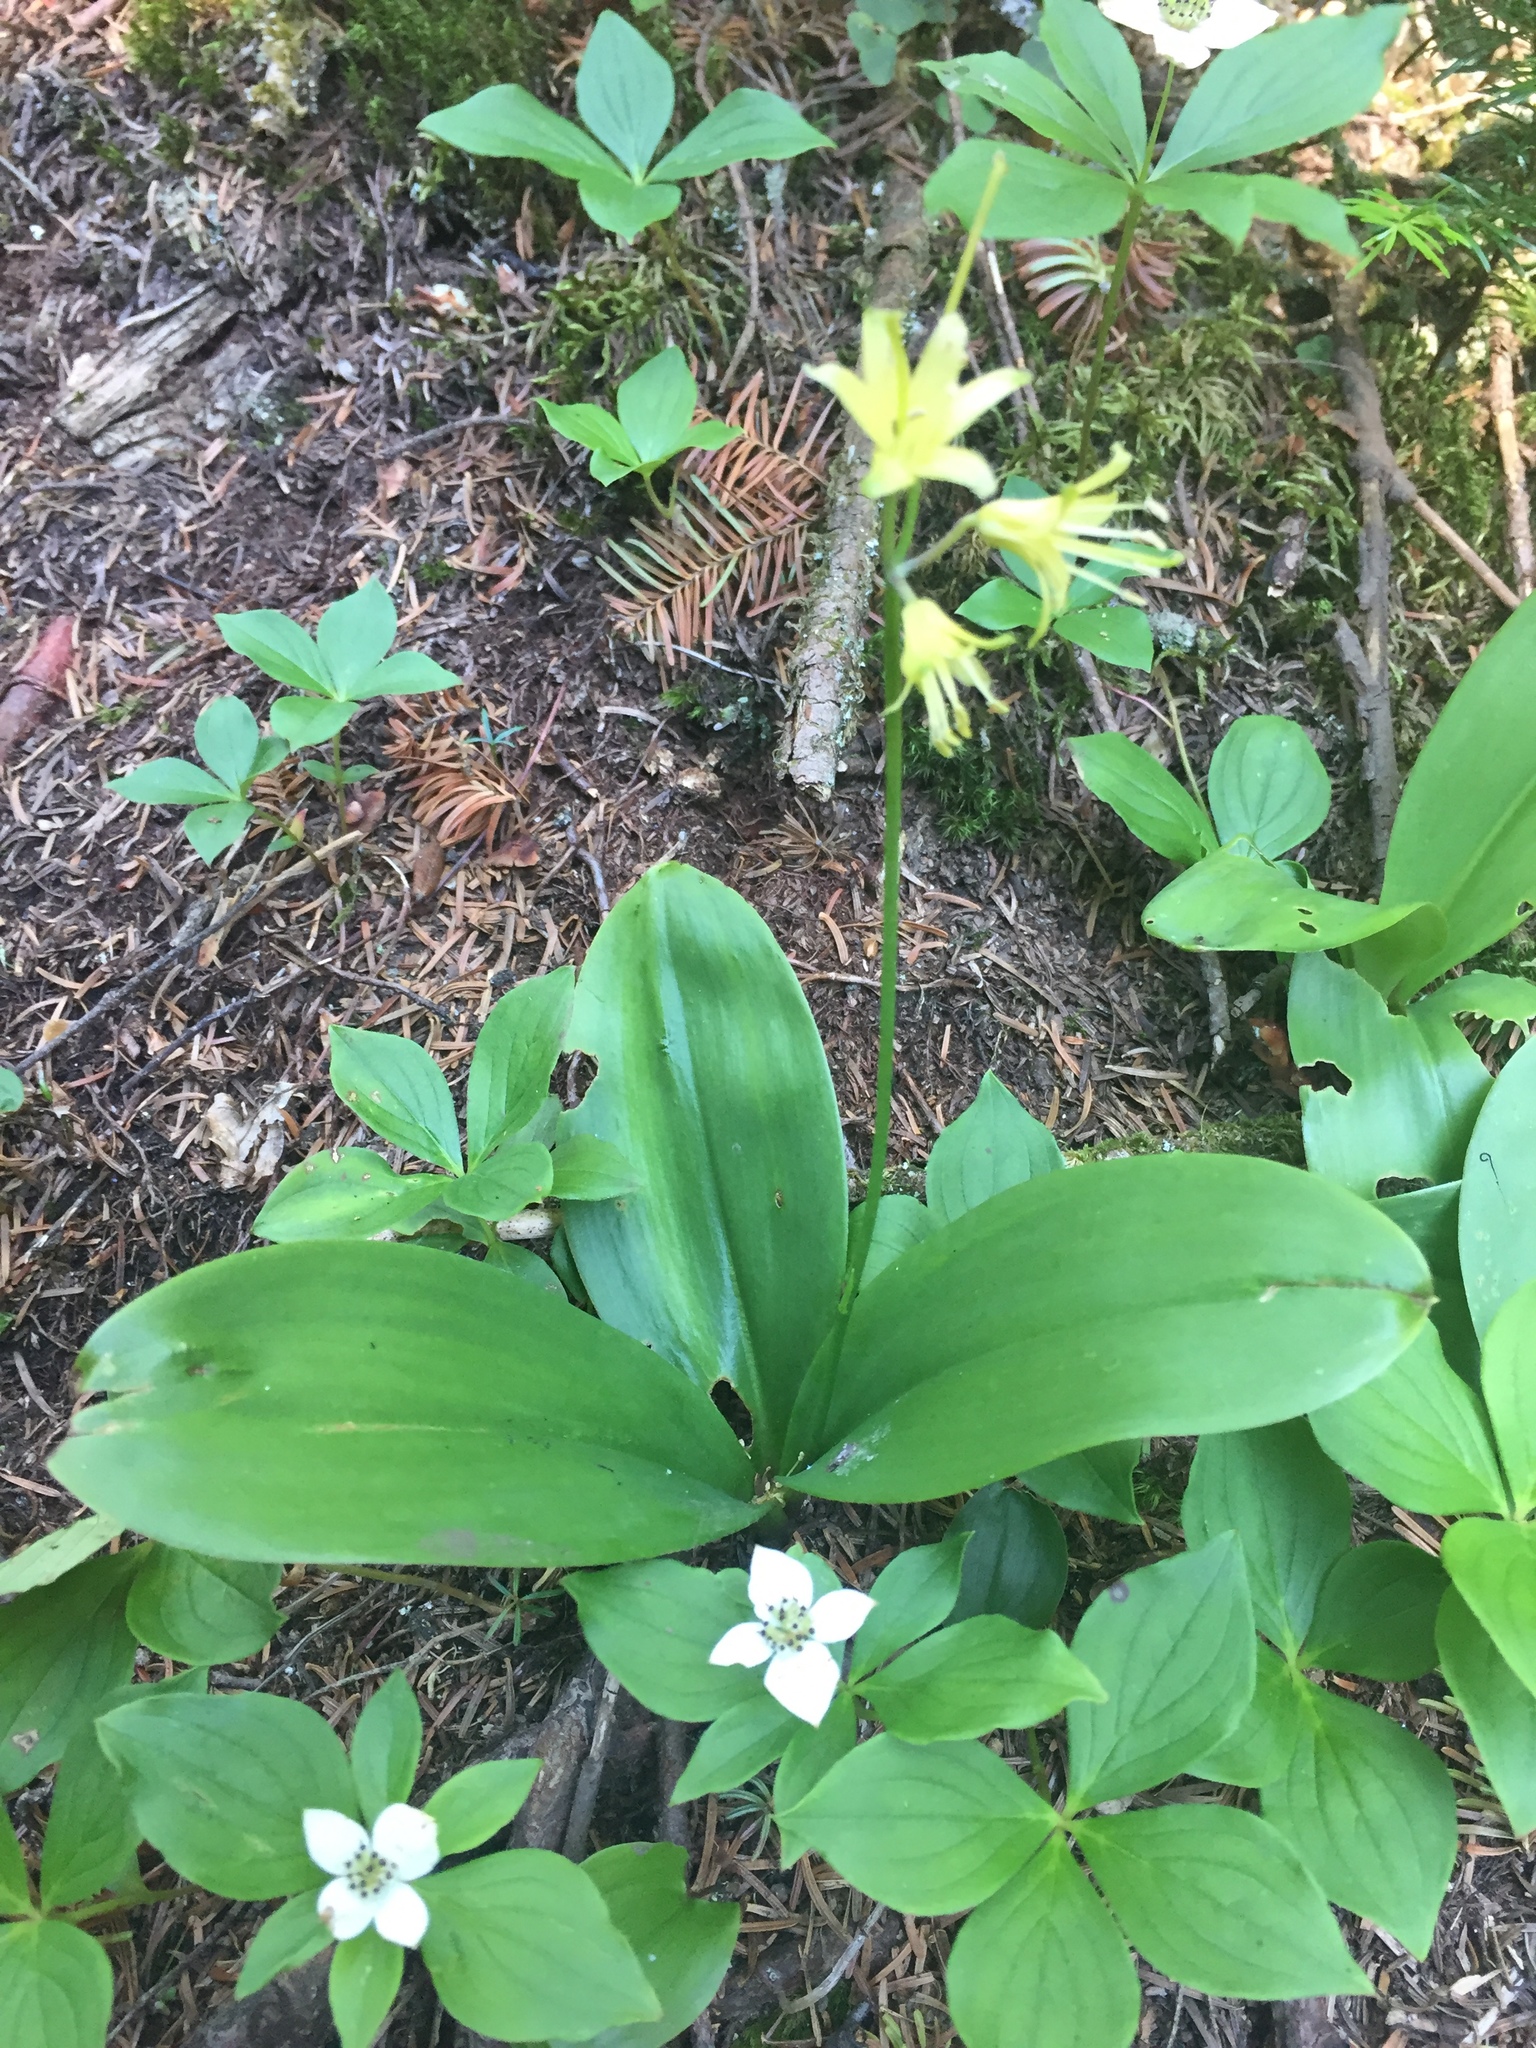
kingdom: Plantae
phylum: Tracheophyta
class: Liliopsida
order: Liliales
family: Liliaceae
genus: Clintonia
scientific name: Clintonia borealis
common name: Yellow clintonia
